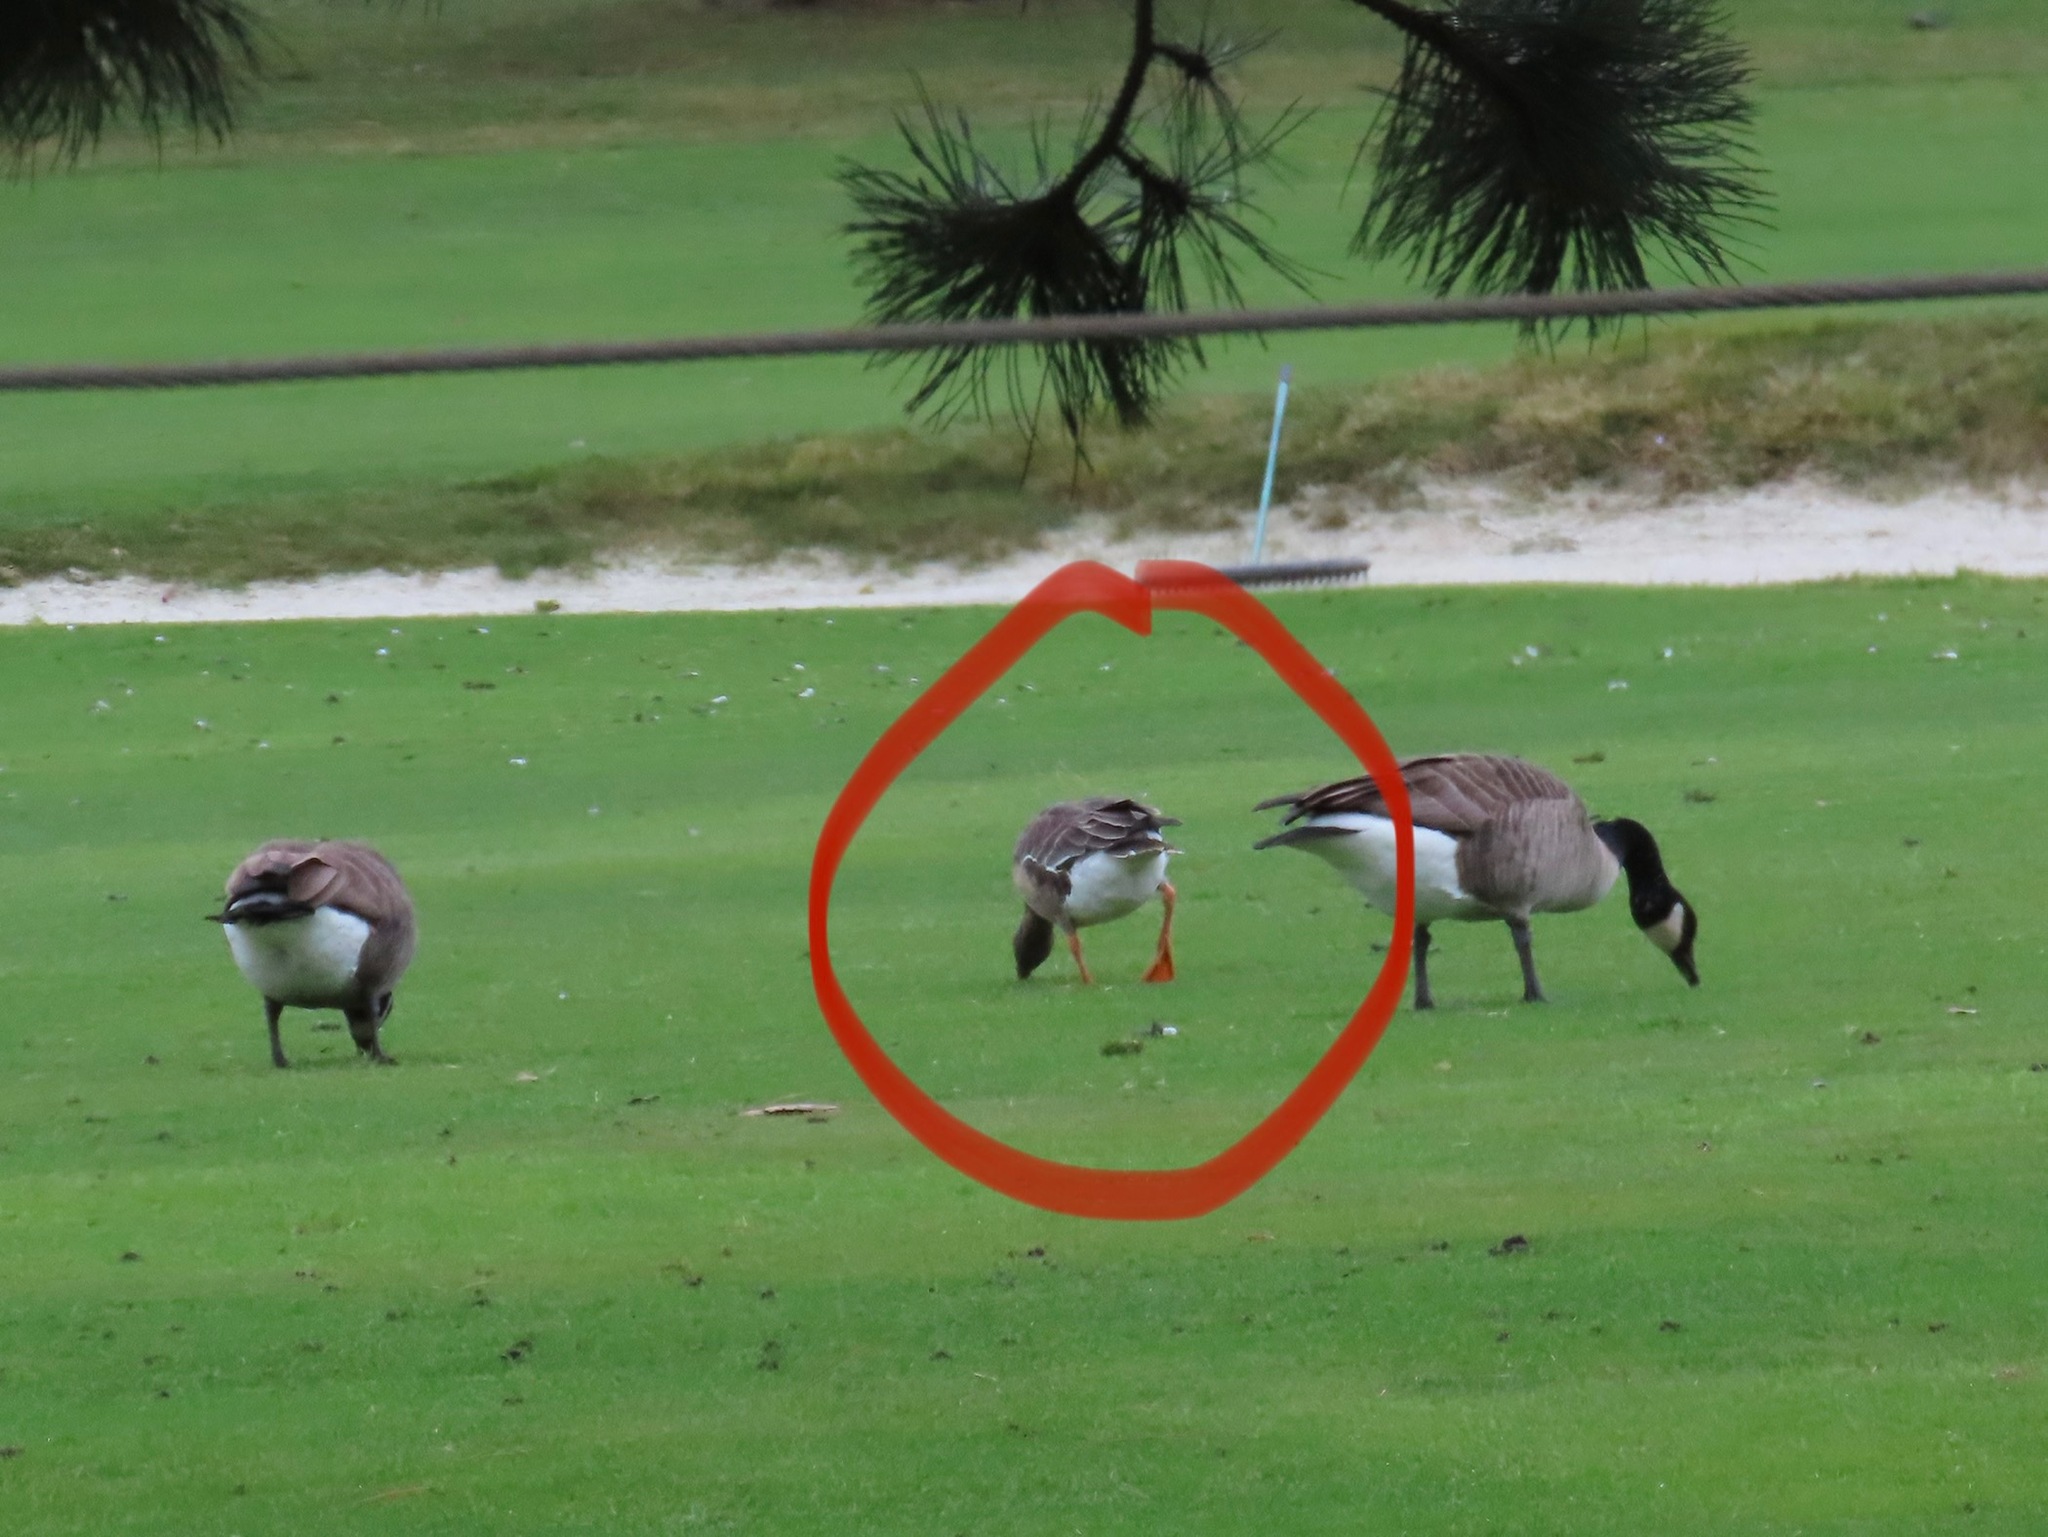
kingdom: Animalia
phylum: Chordata
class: Aves
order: Anseriformes
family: Anatidae
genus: Anser
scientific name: Anser albifrons
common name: Greater white-fronted goose
